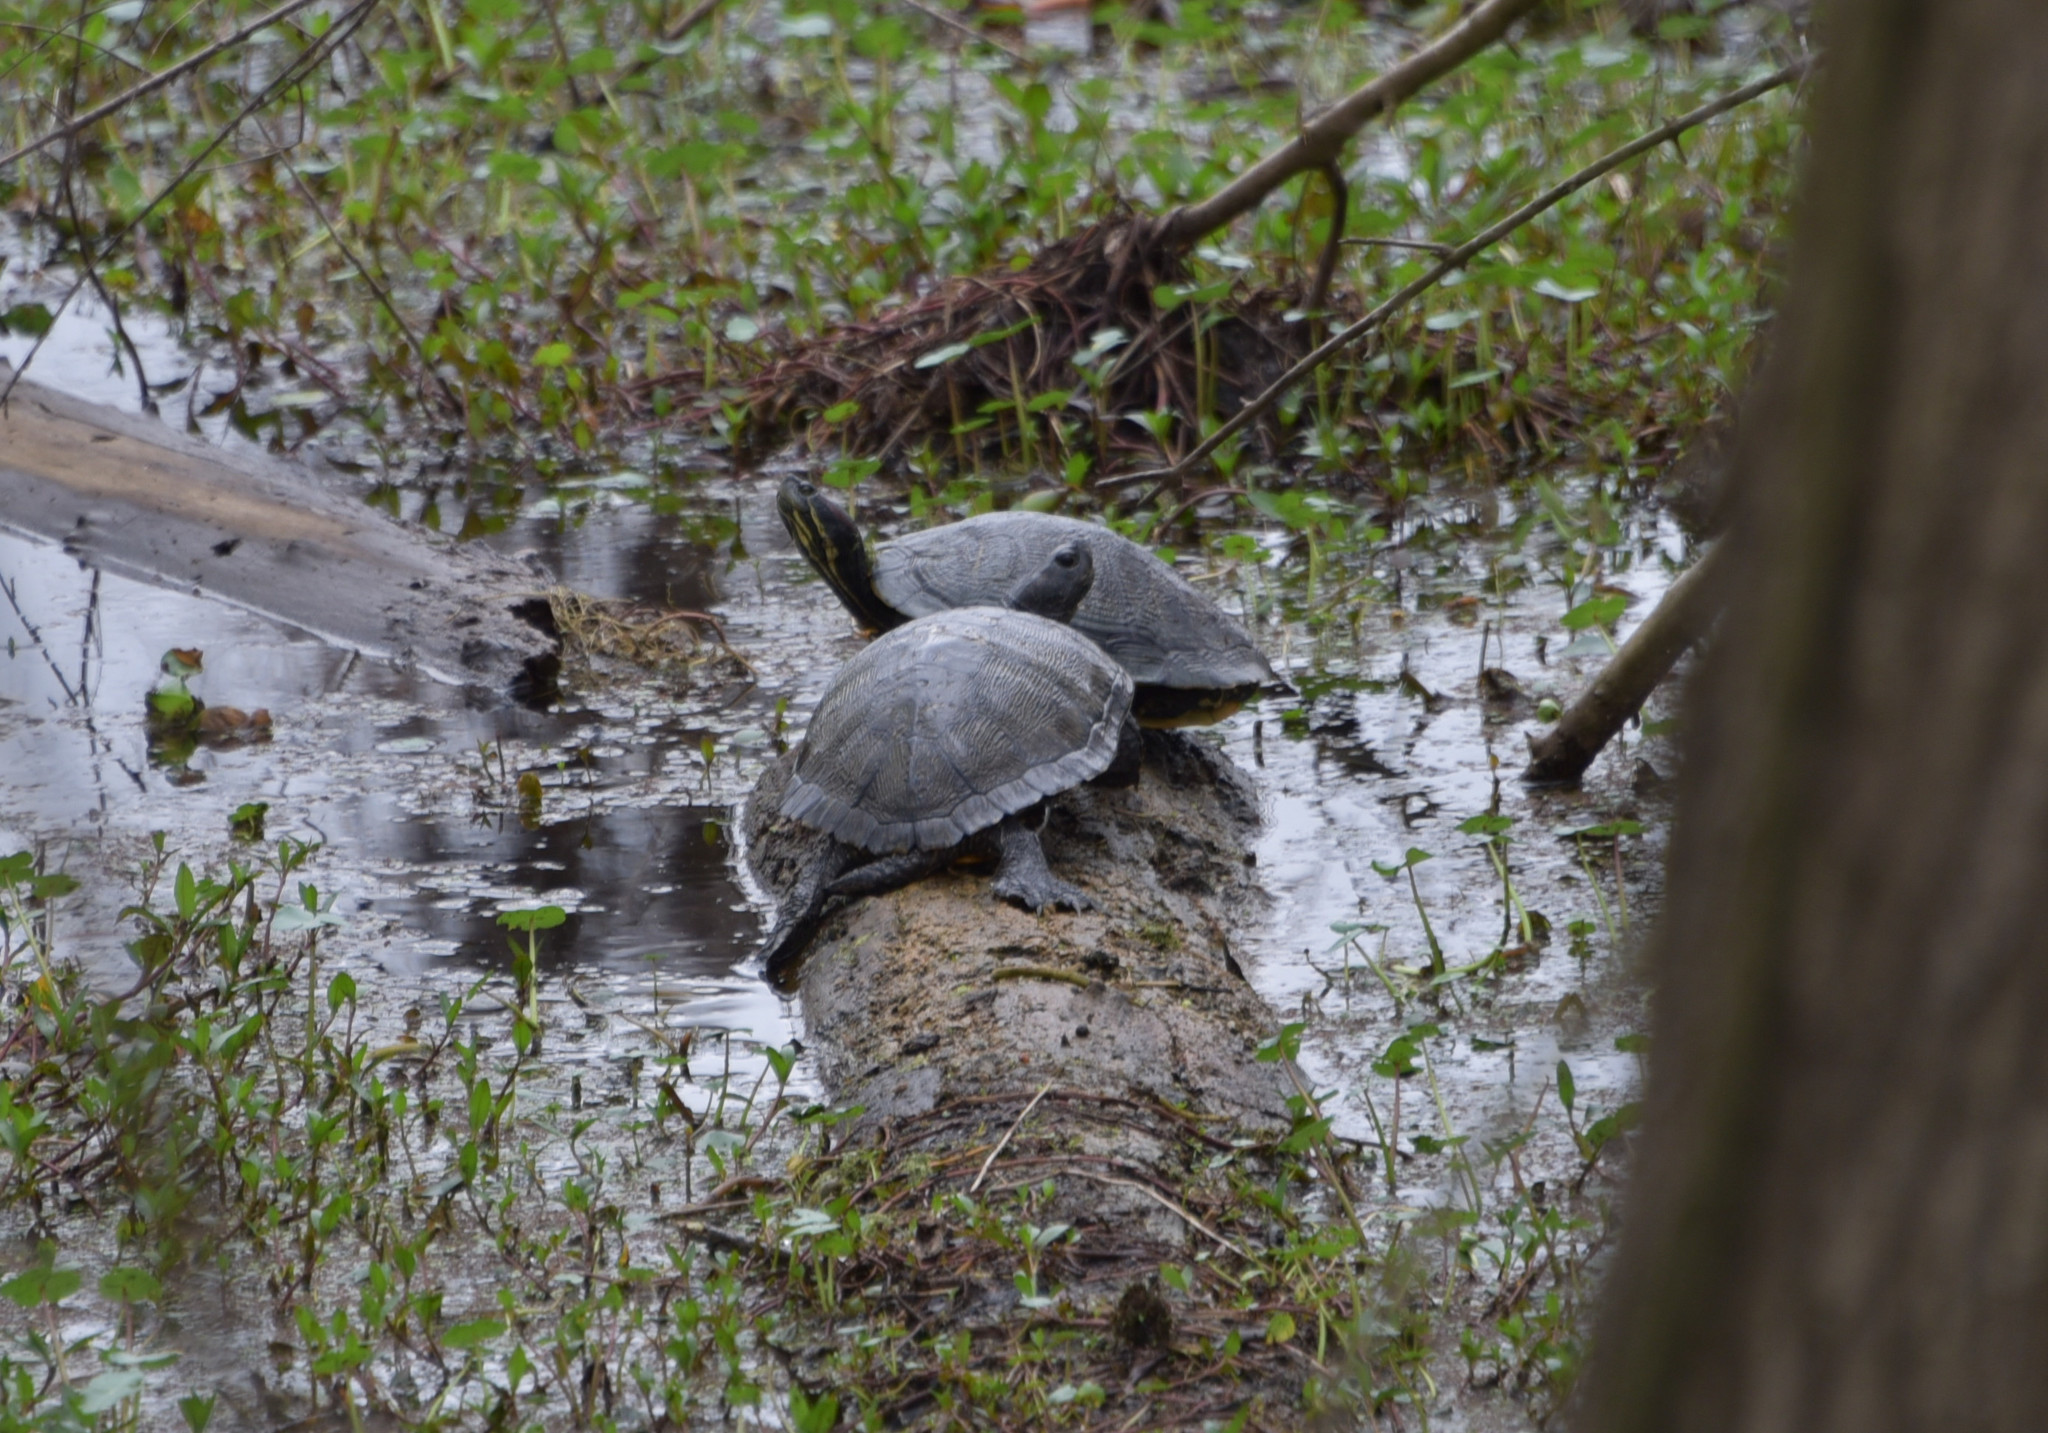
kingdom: Animalia
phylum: Chordata
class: Testudines
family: Emydidae
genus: Trachemys
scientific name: Trachemys scripta
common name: Slider
